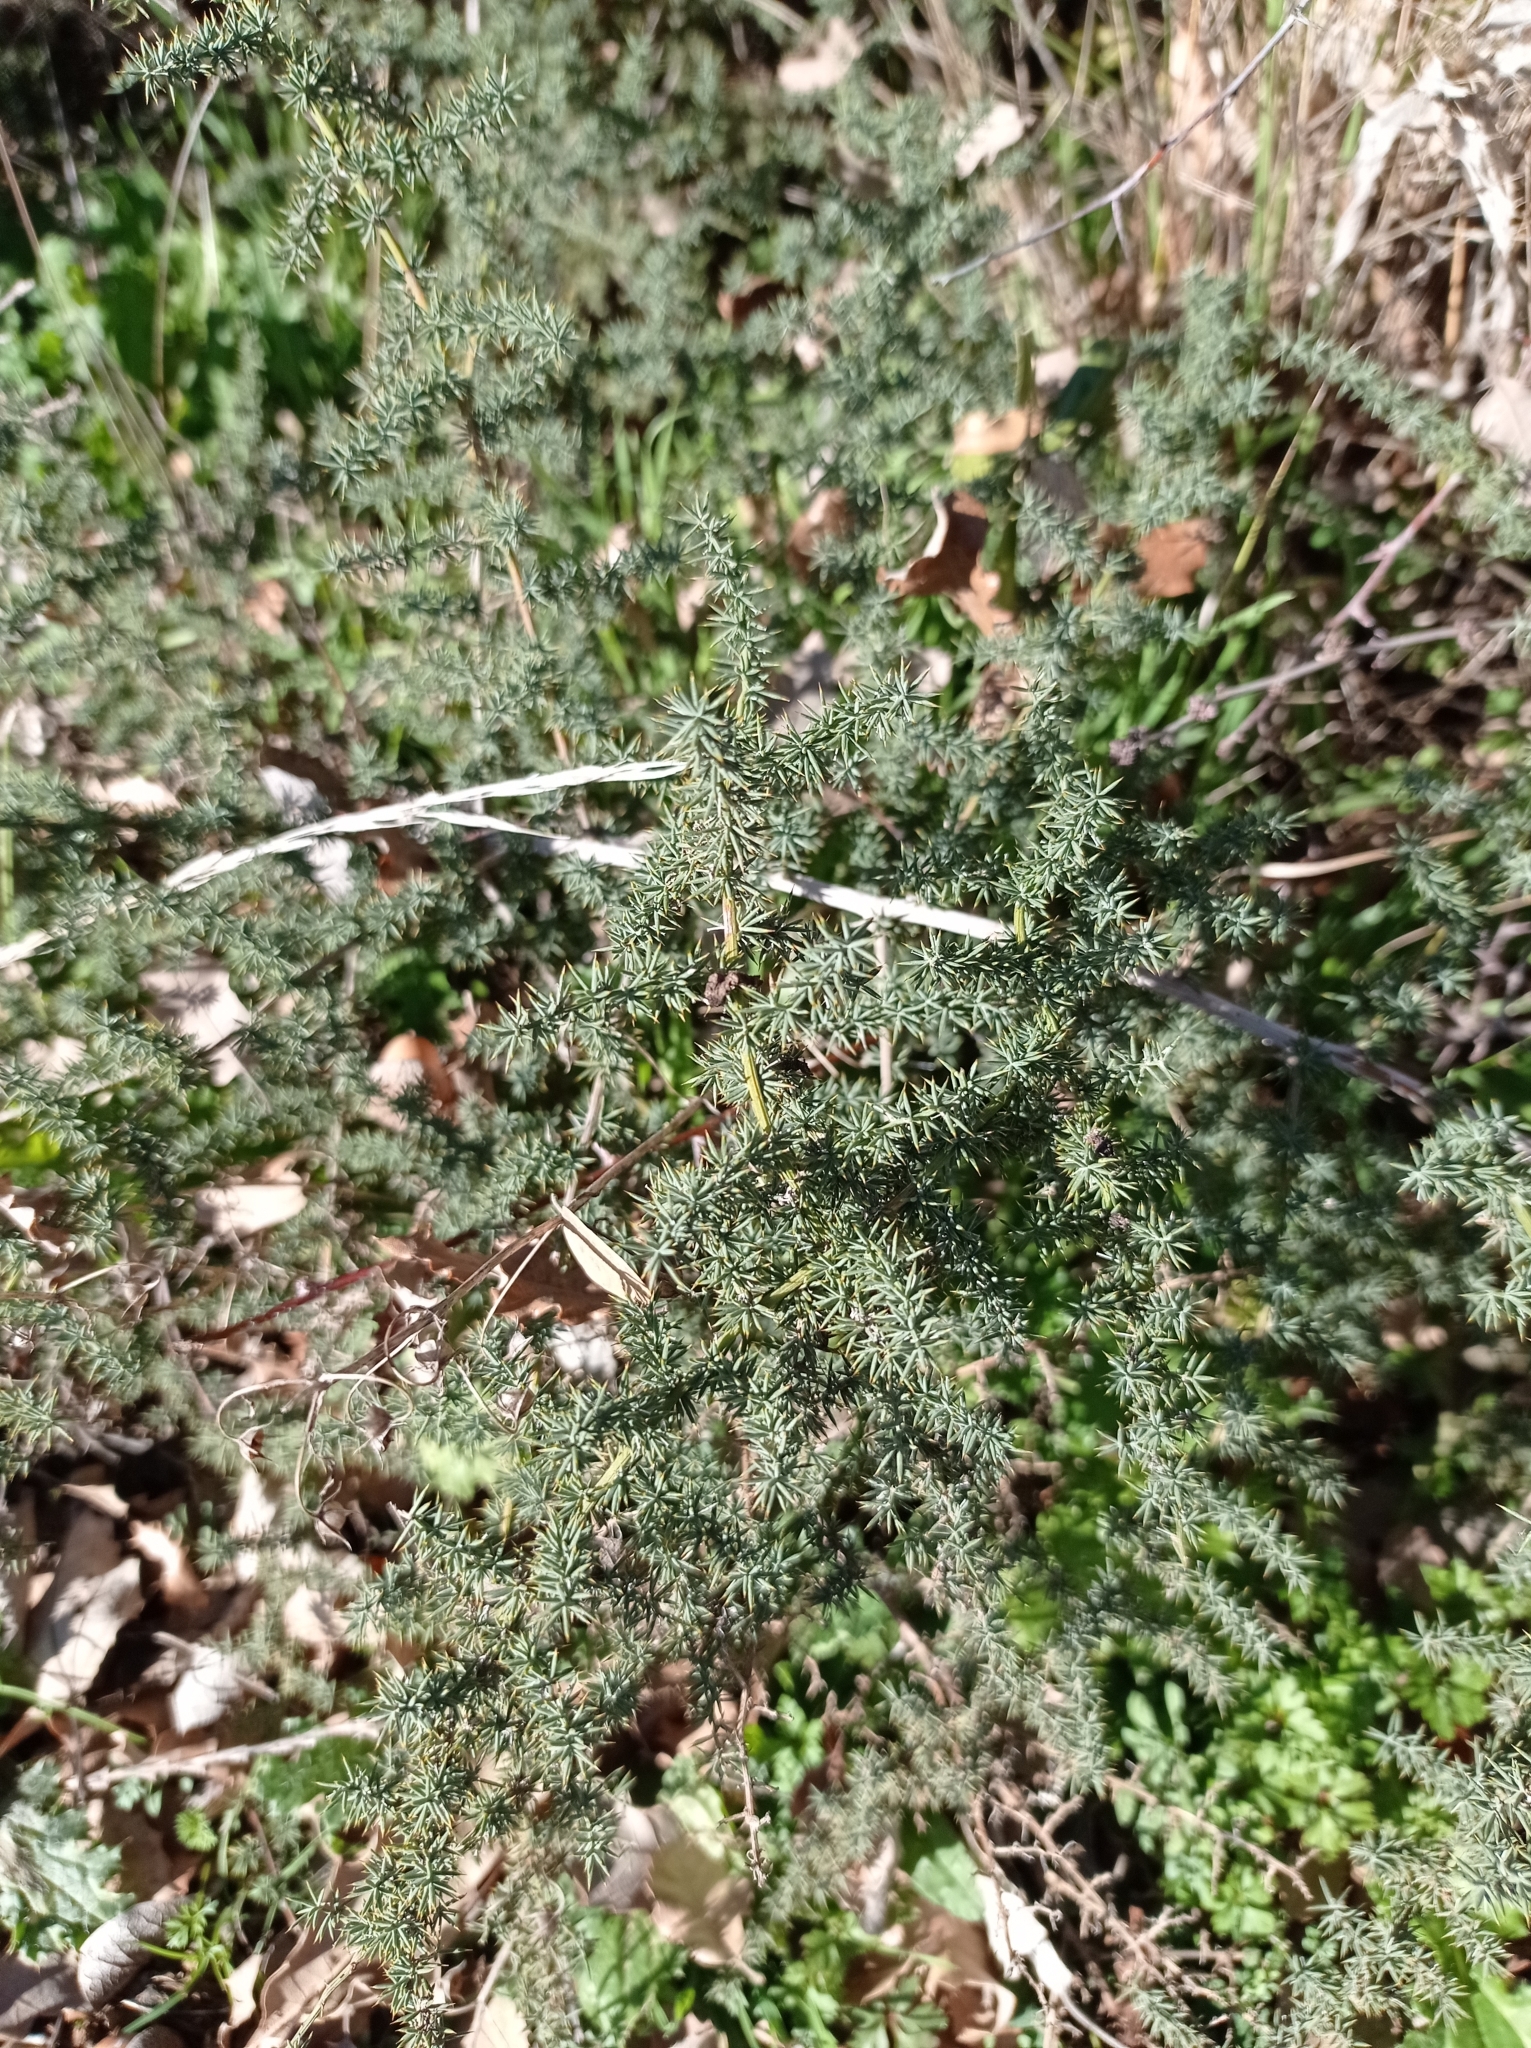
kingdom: Plantae
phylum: Tracheophyta
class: Liliopsida
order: Asparagales
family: Asparagaceae
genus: Asparagus
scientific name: Asparagus acutifolius
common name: Wild asparagus
